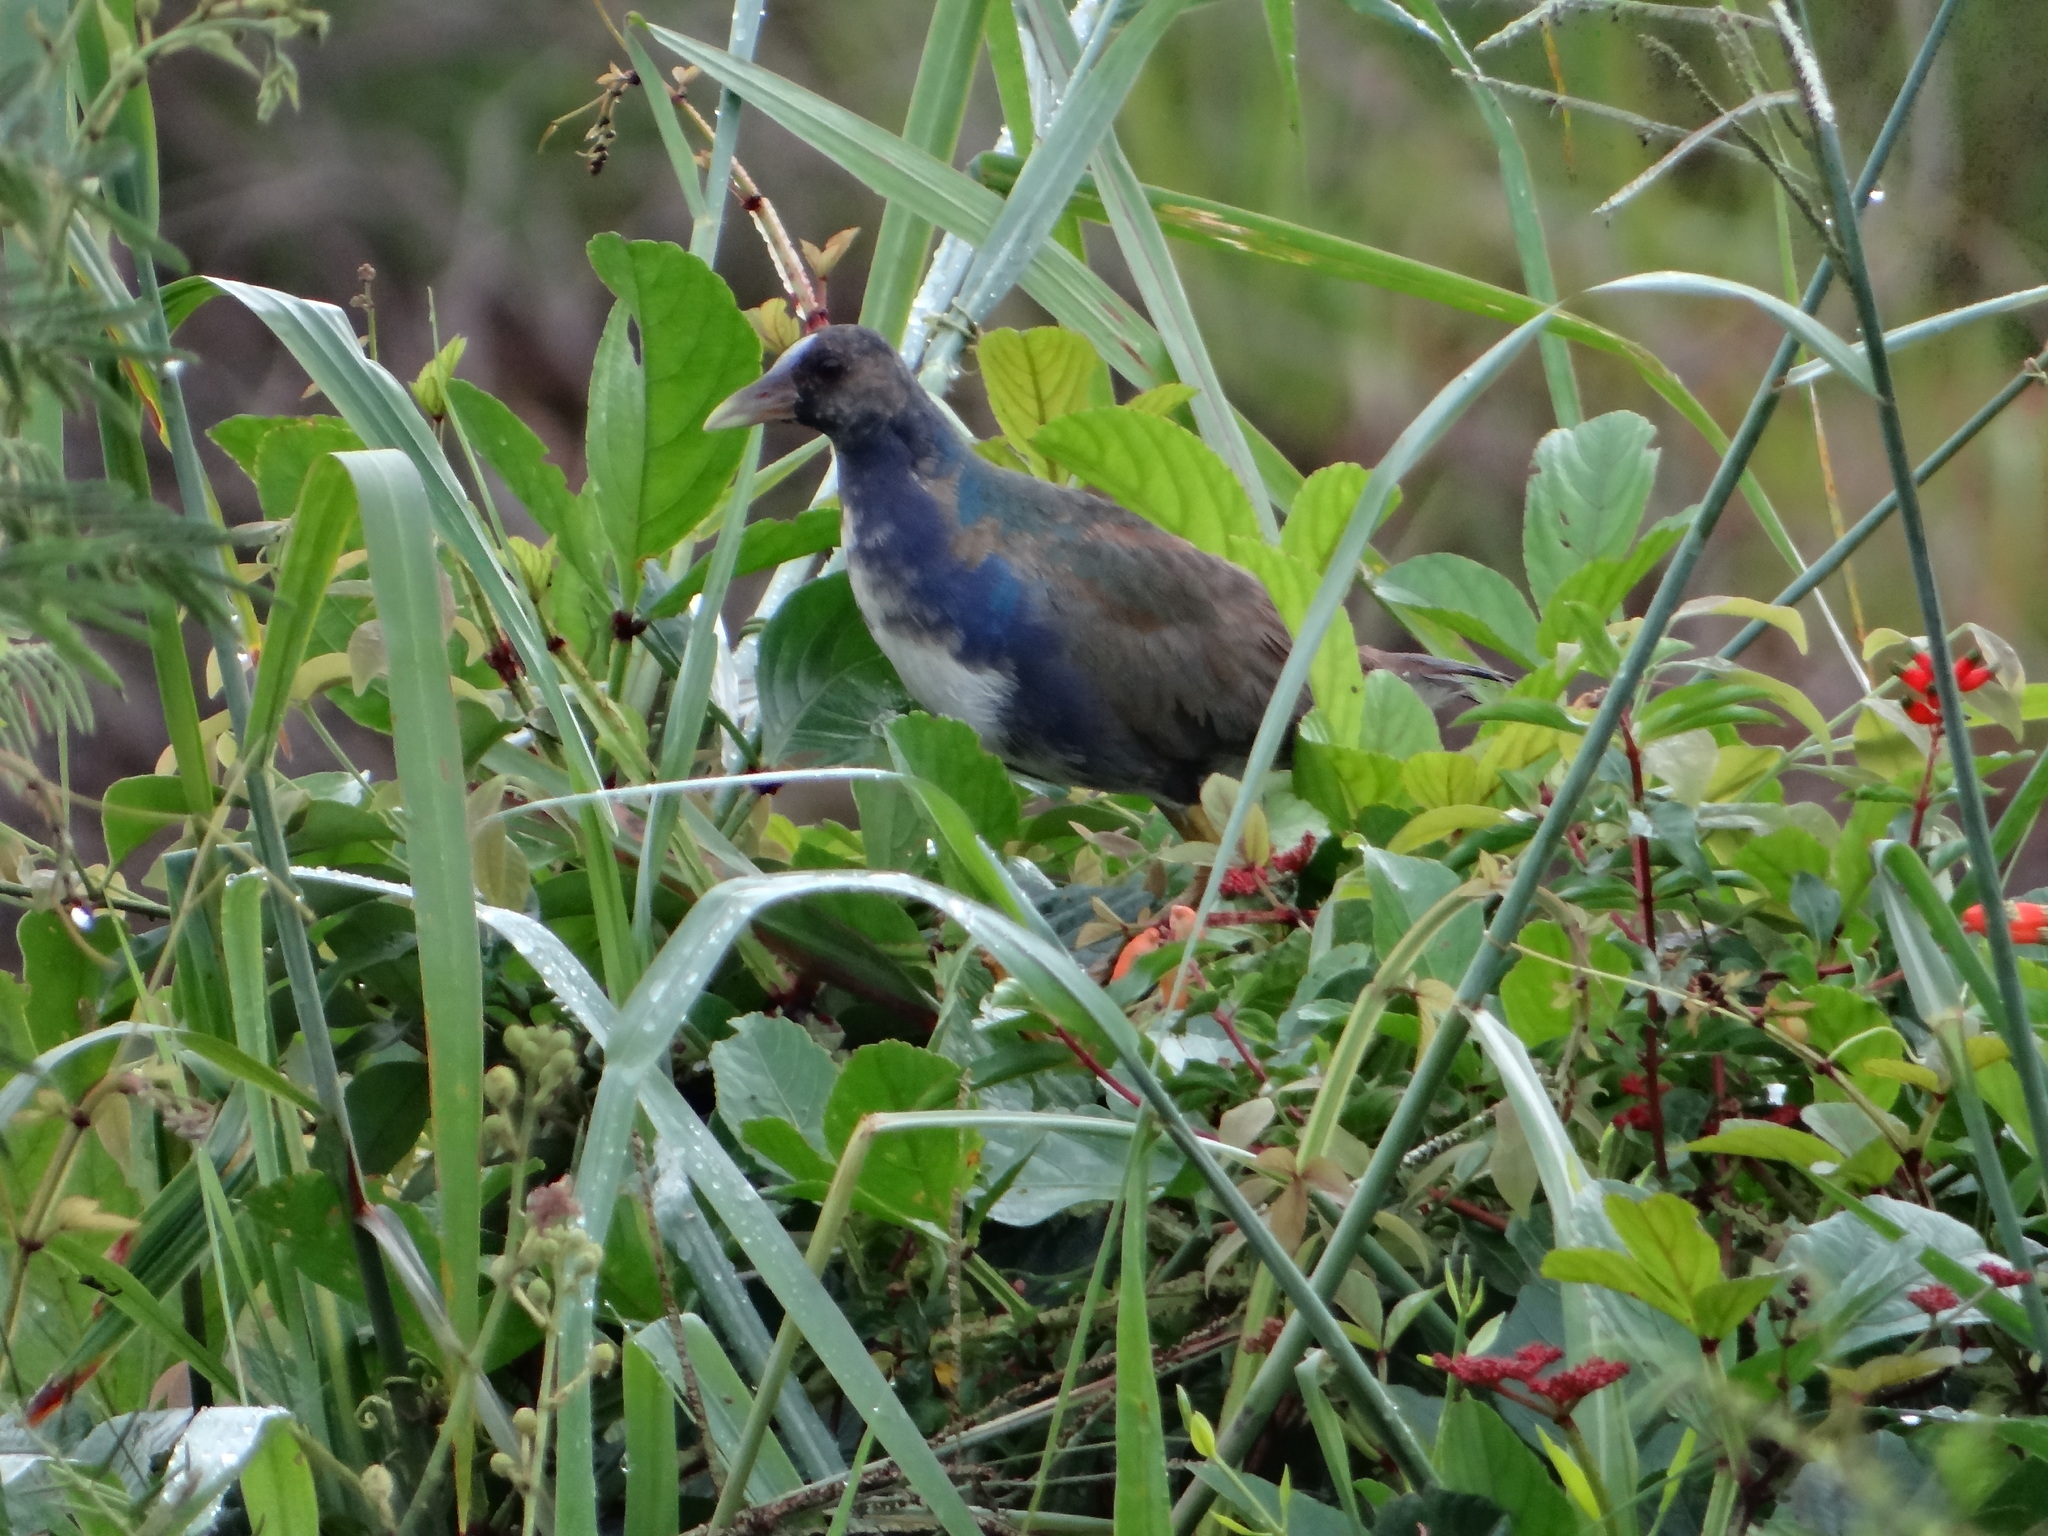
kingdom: Animalia
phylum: Chordata
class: Aves
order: Gruiformes
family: Rallidae
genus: Porphyrio
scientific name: Porphyrio martinica
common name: Purple gallinule
